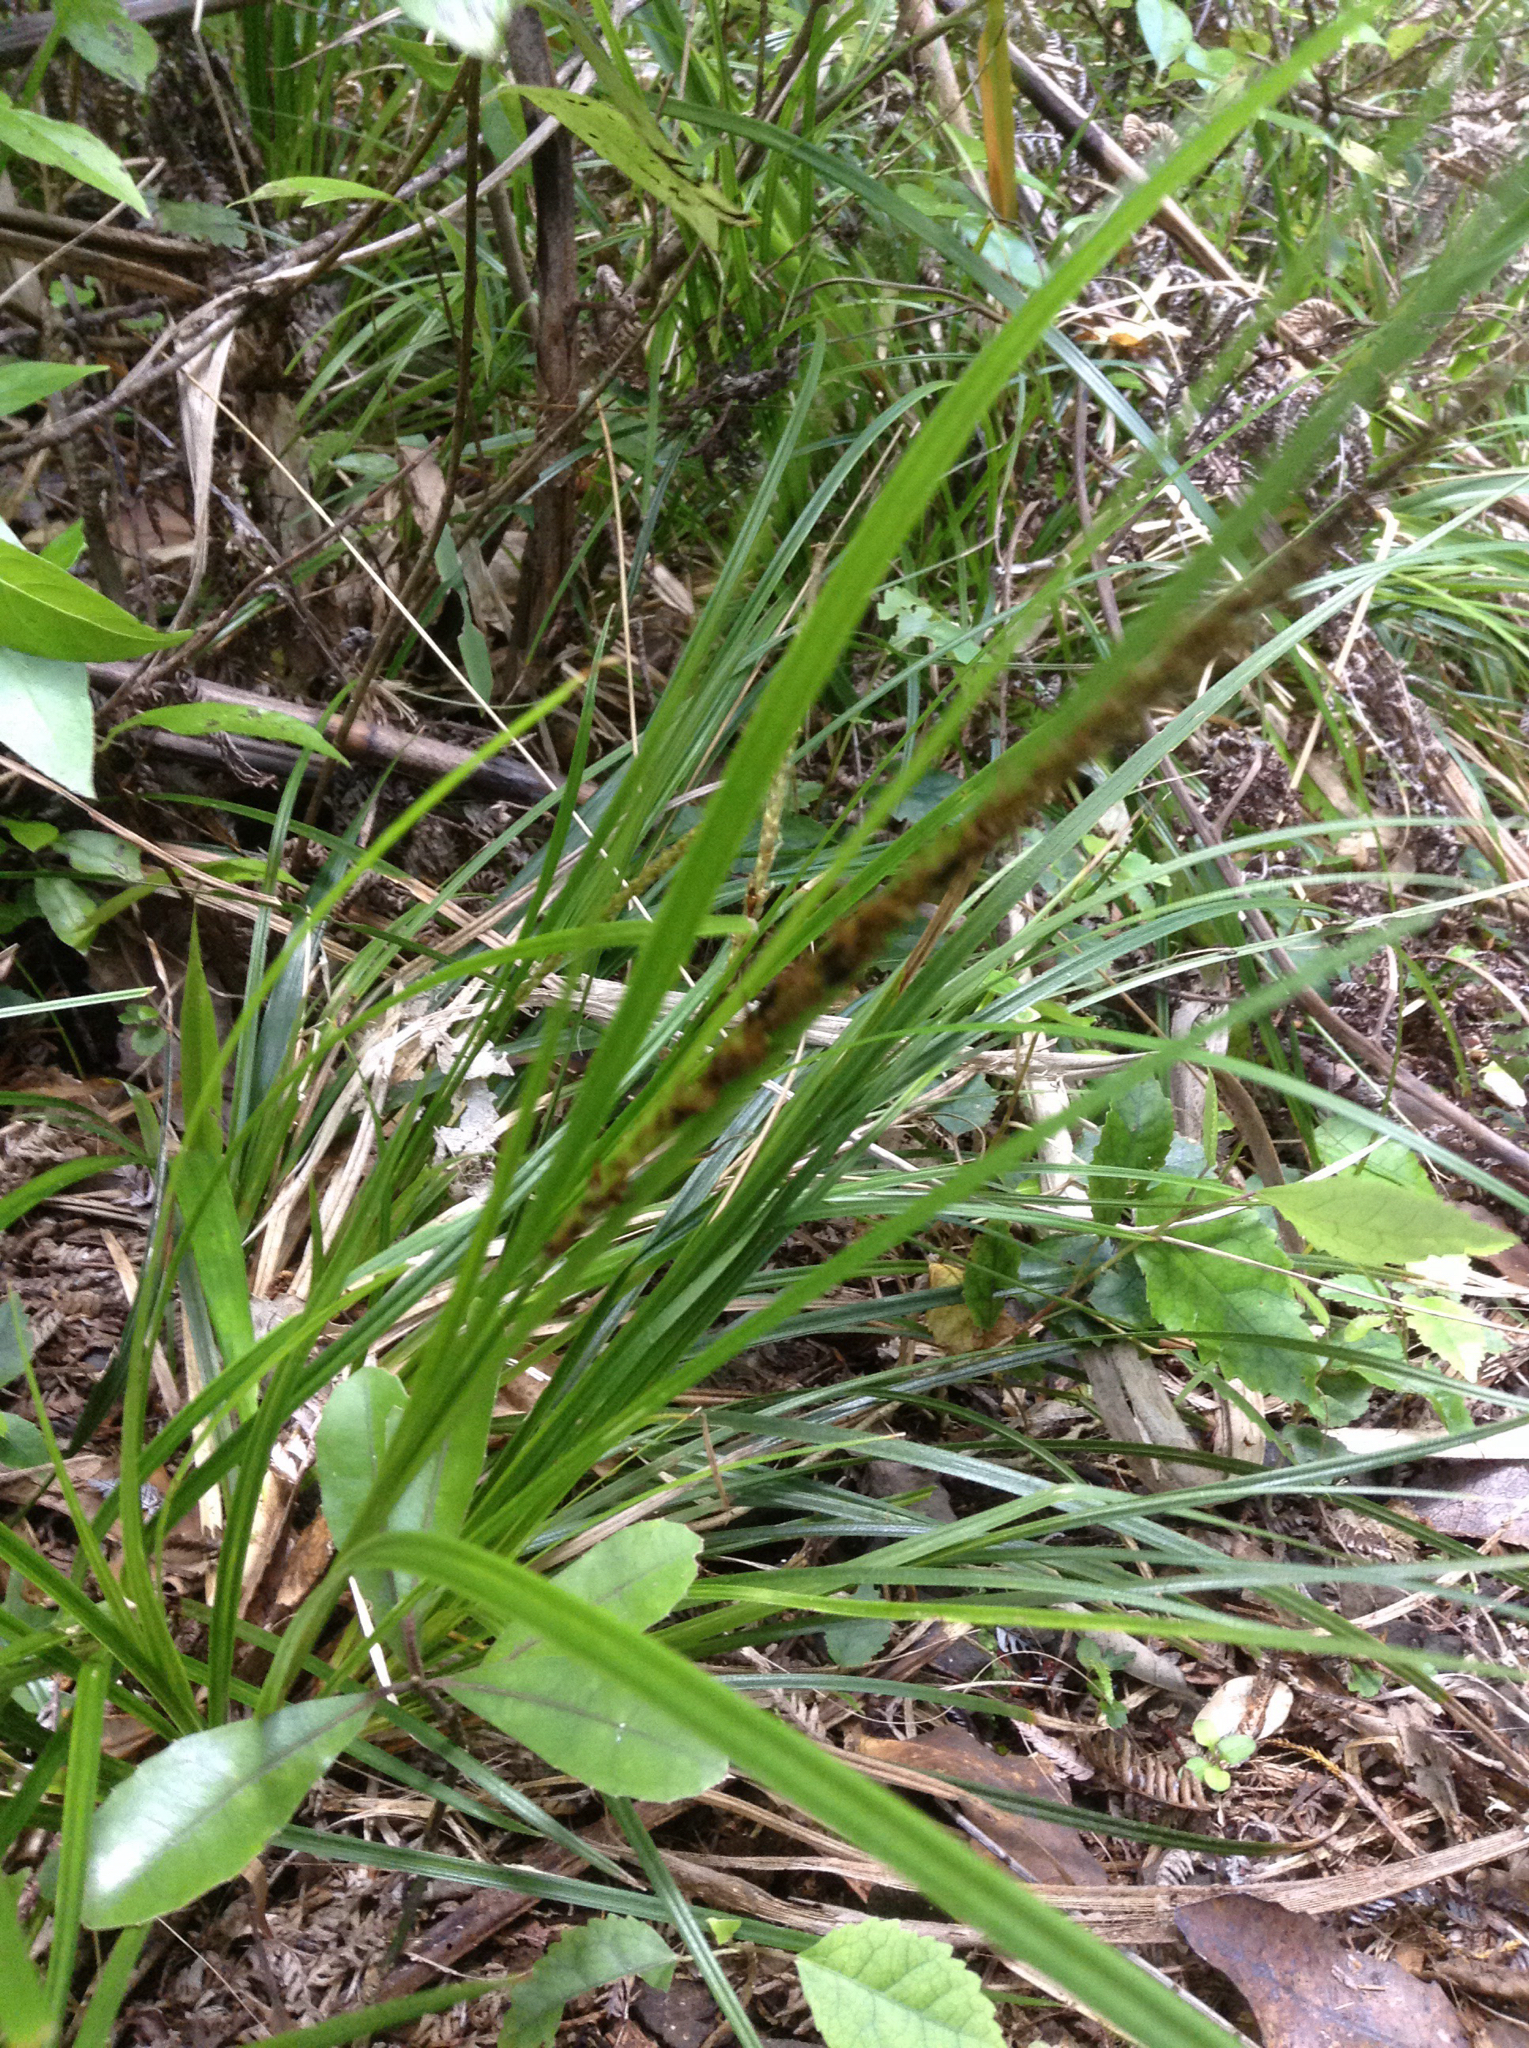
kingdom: Plantae
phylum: Tracheophyta
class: Liliopsida
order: Poales
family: Cyperaceae
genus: Carex
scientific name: Carex uncinata
